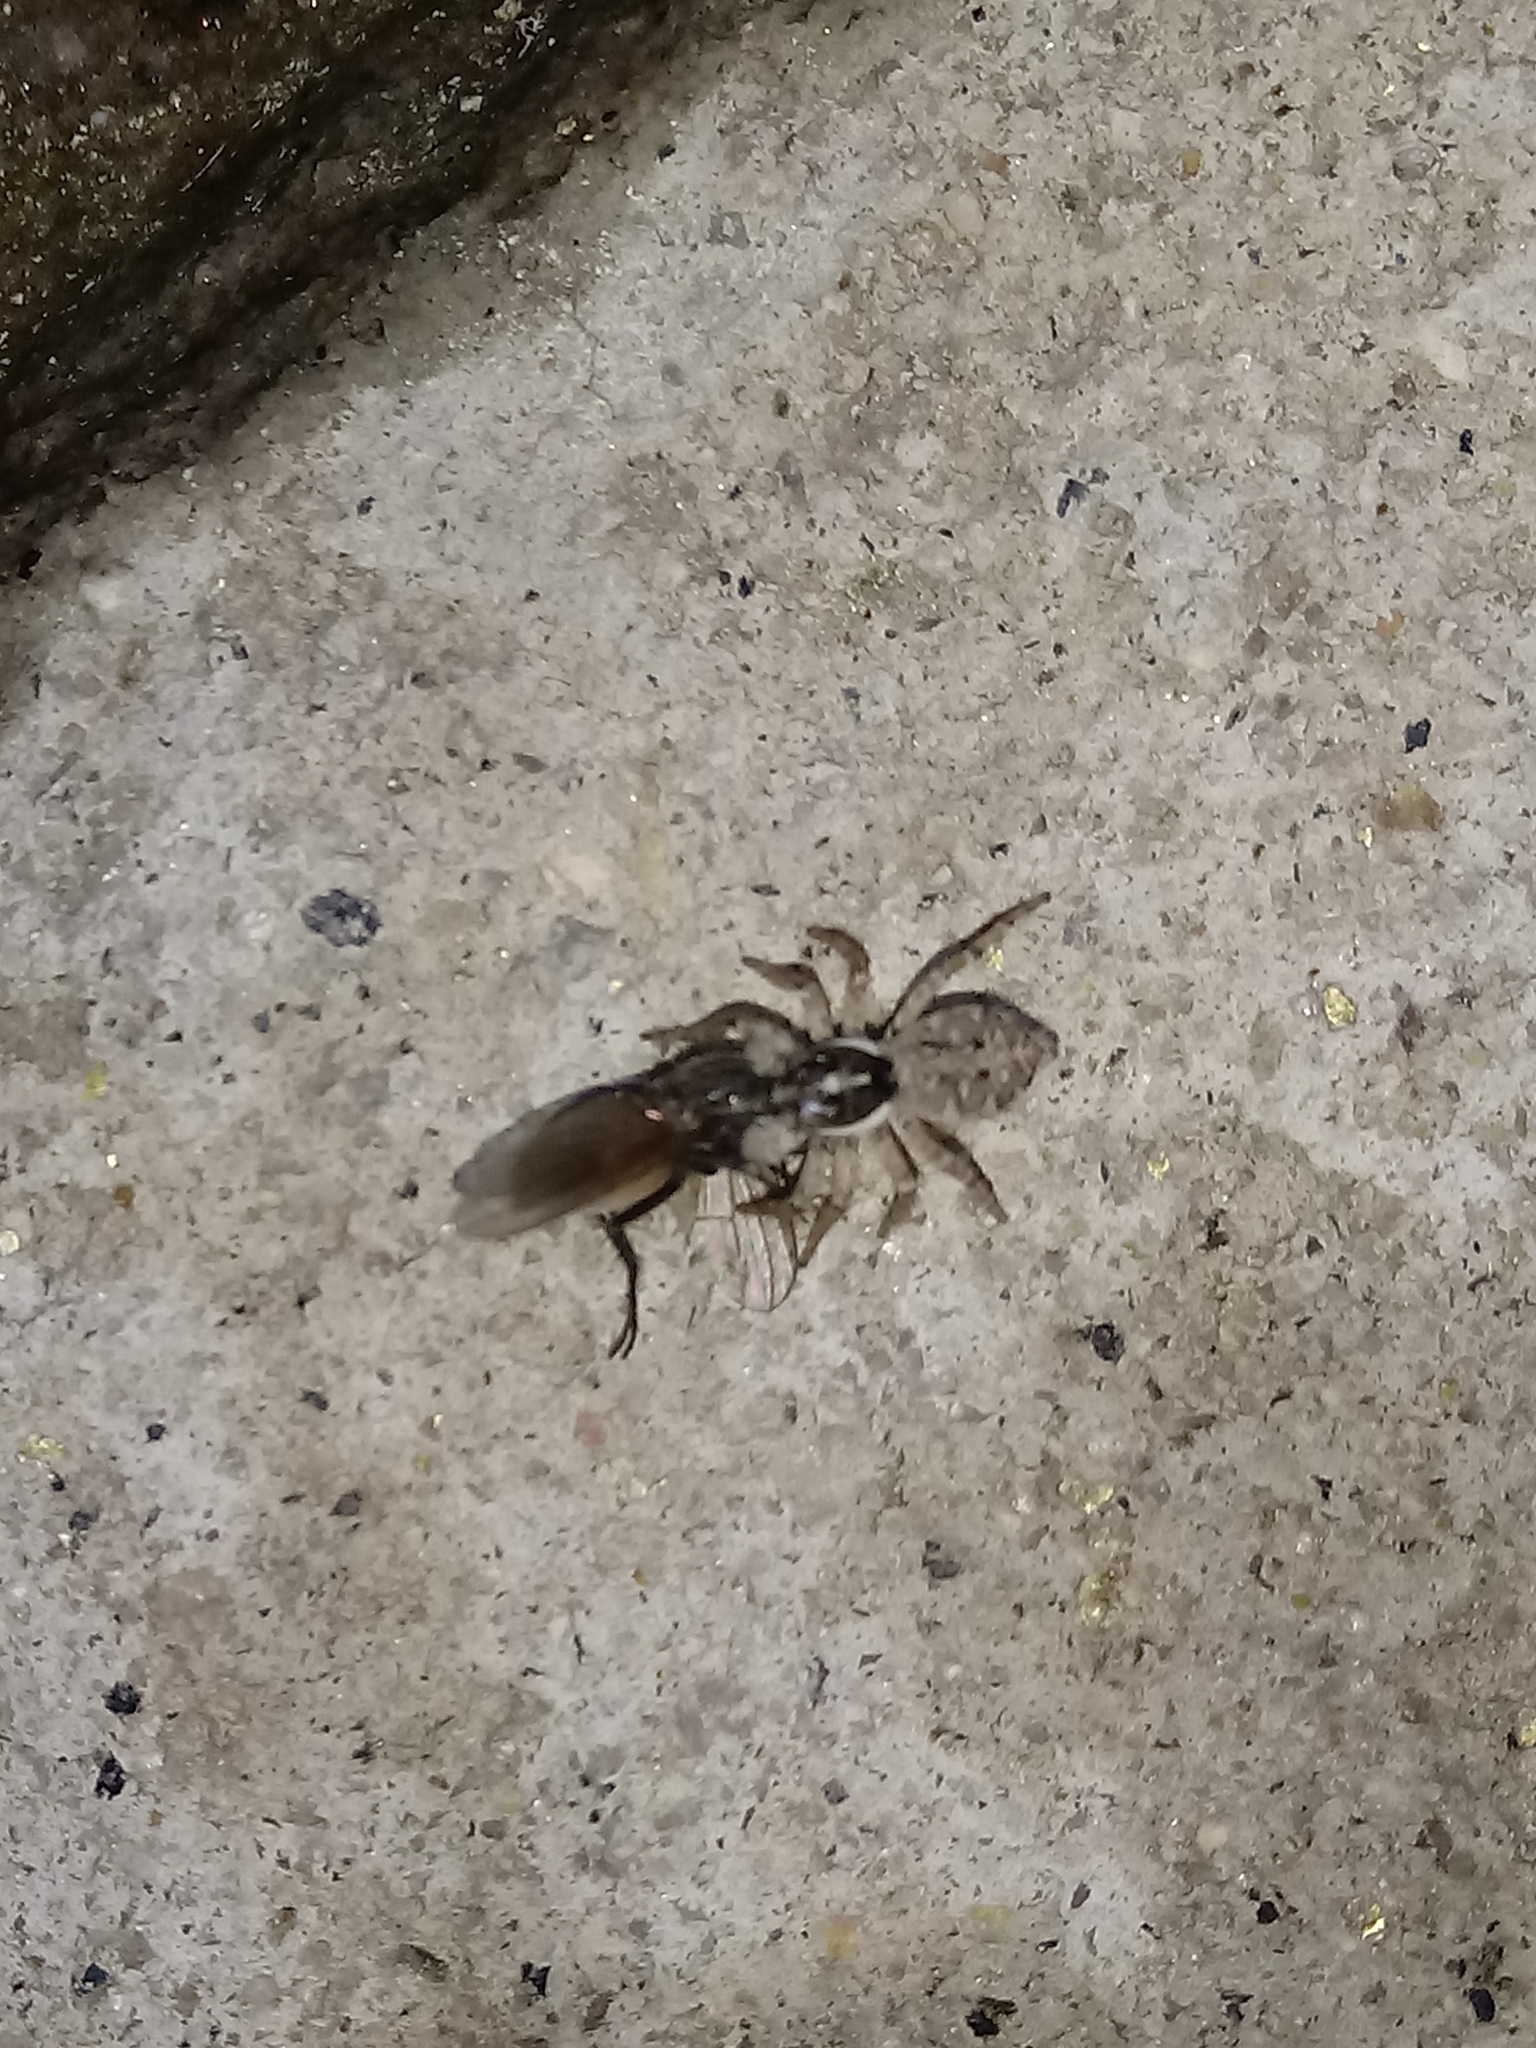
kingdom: Animalia
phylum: Arthropoda
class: Arachnida
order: Araneae
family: Salticidae
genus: Menemerus
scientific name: Menemerus semilimbatus
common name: Jumping spider
